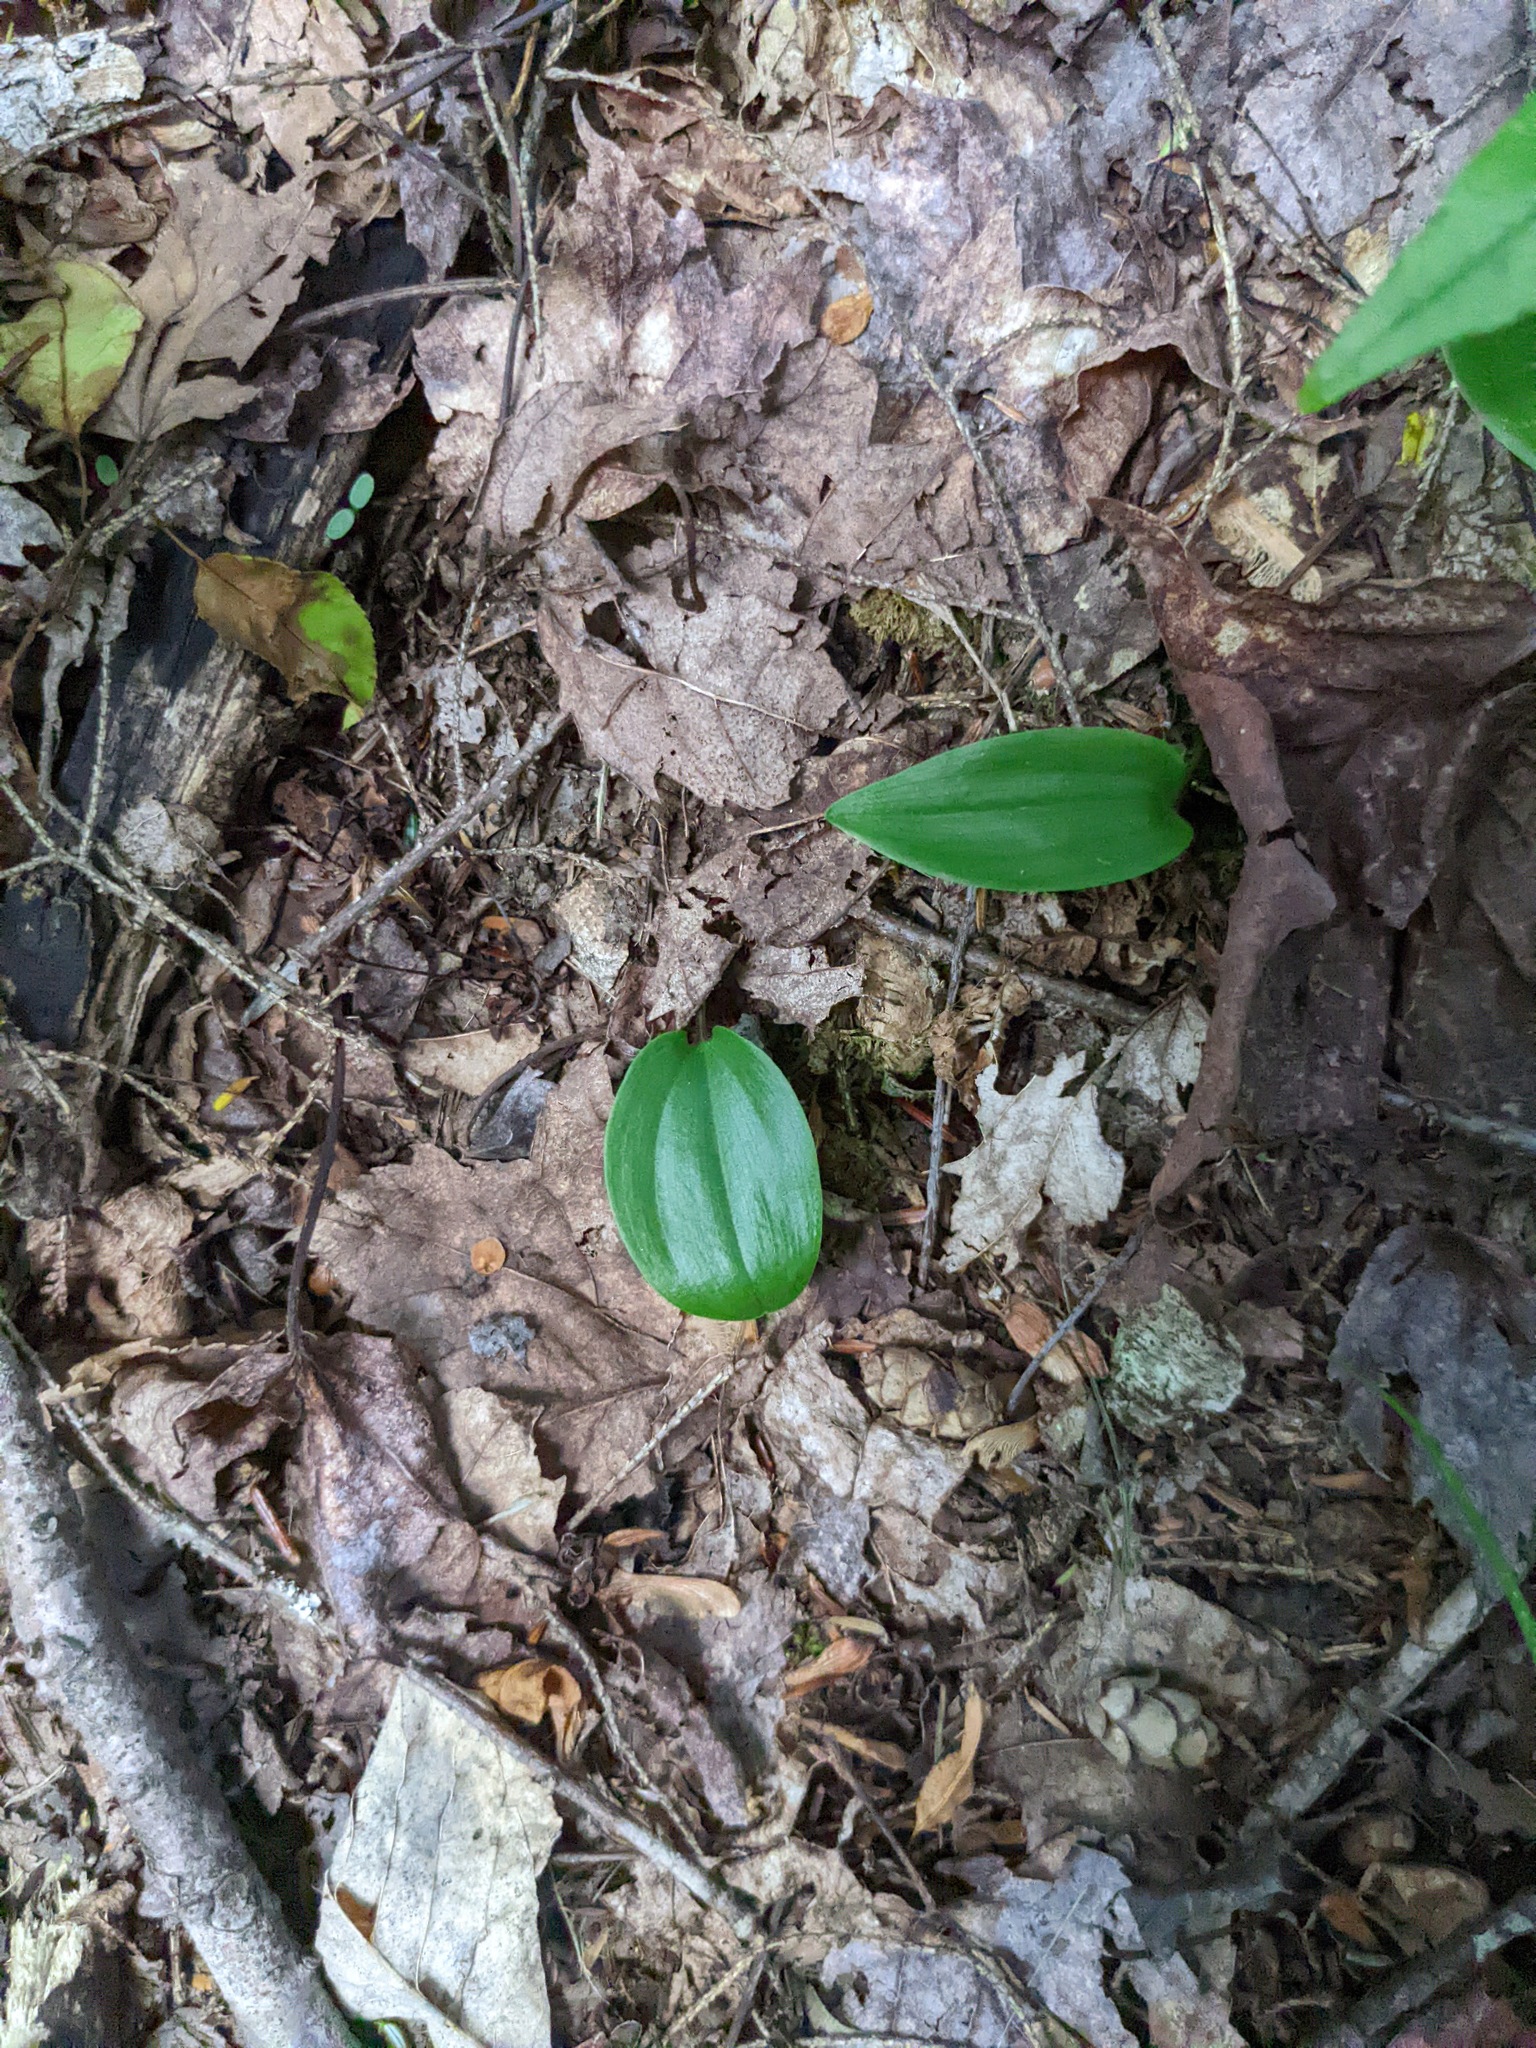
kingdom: Plantae
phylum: Tracheophyta
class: Liliopsida
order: Asparagales
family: Asparagaceae
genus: Maianthemum
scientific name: Maianthemum canadense
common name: False lily-of-the-valley
